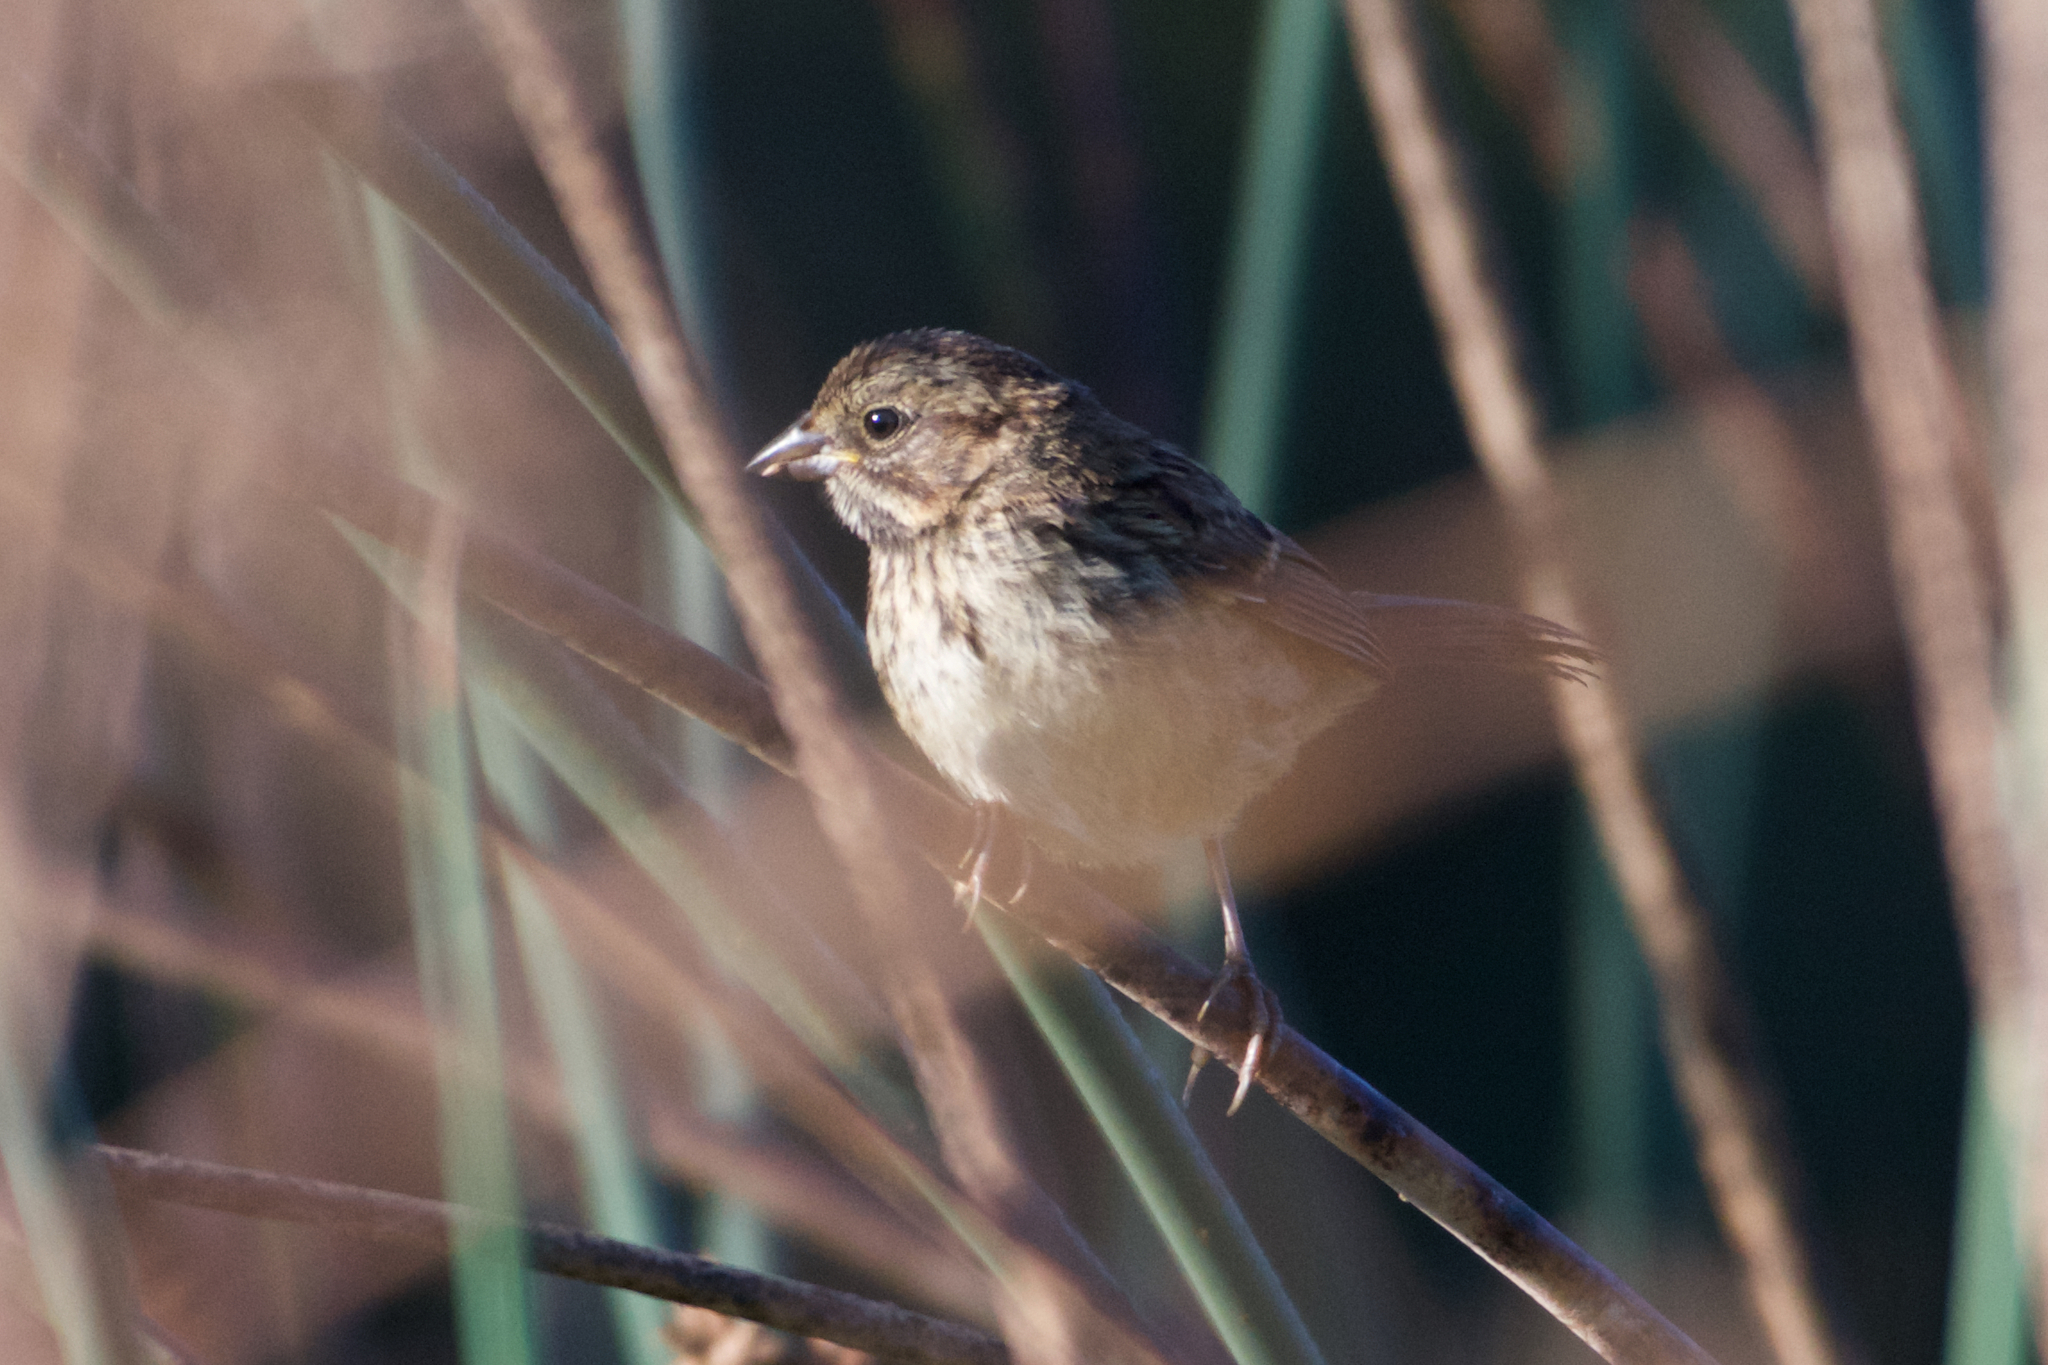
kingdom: Animalia
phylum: Chordata
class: Aves
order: Passeriformes
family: Passerellidae
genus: Melospiza
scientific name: Melospiza melodia
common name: Song sparrow
